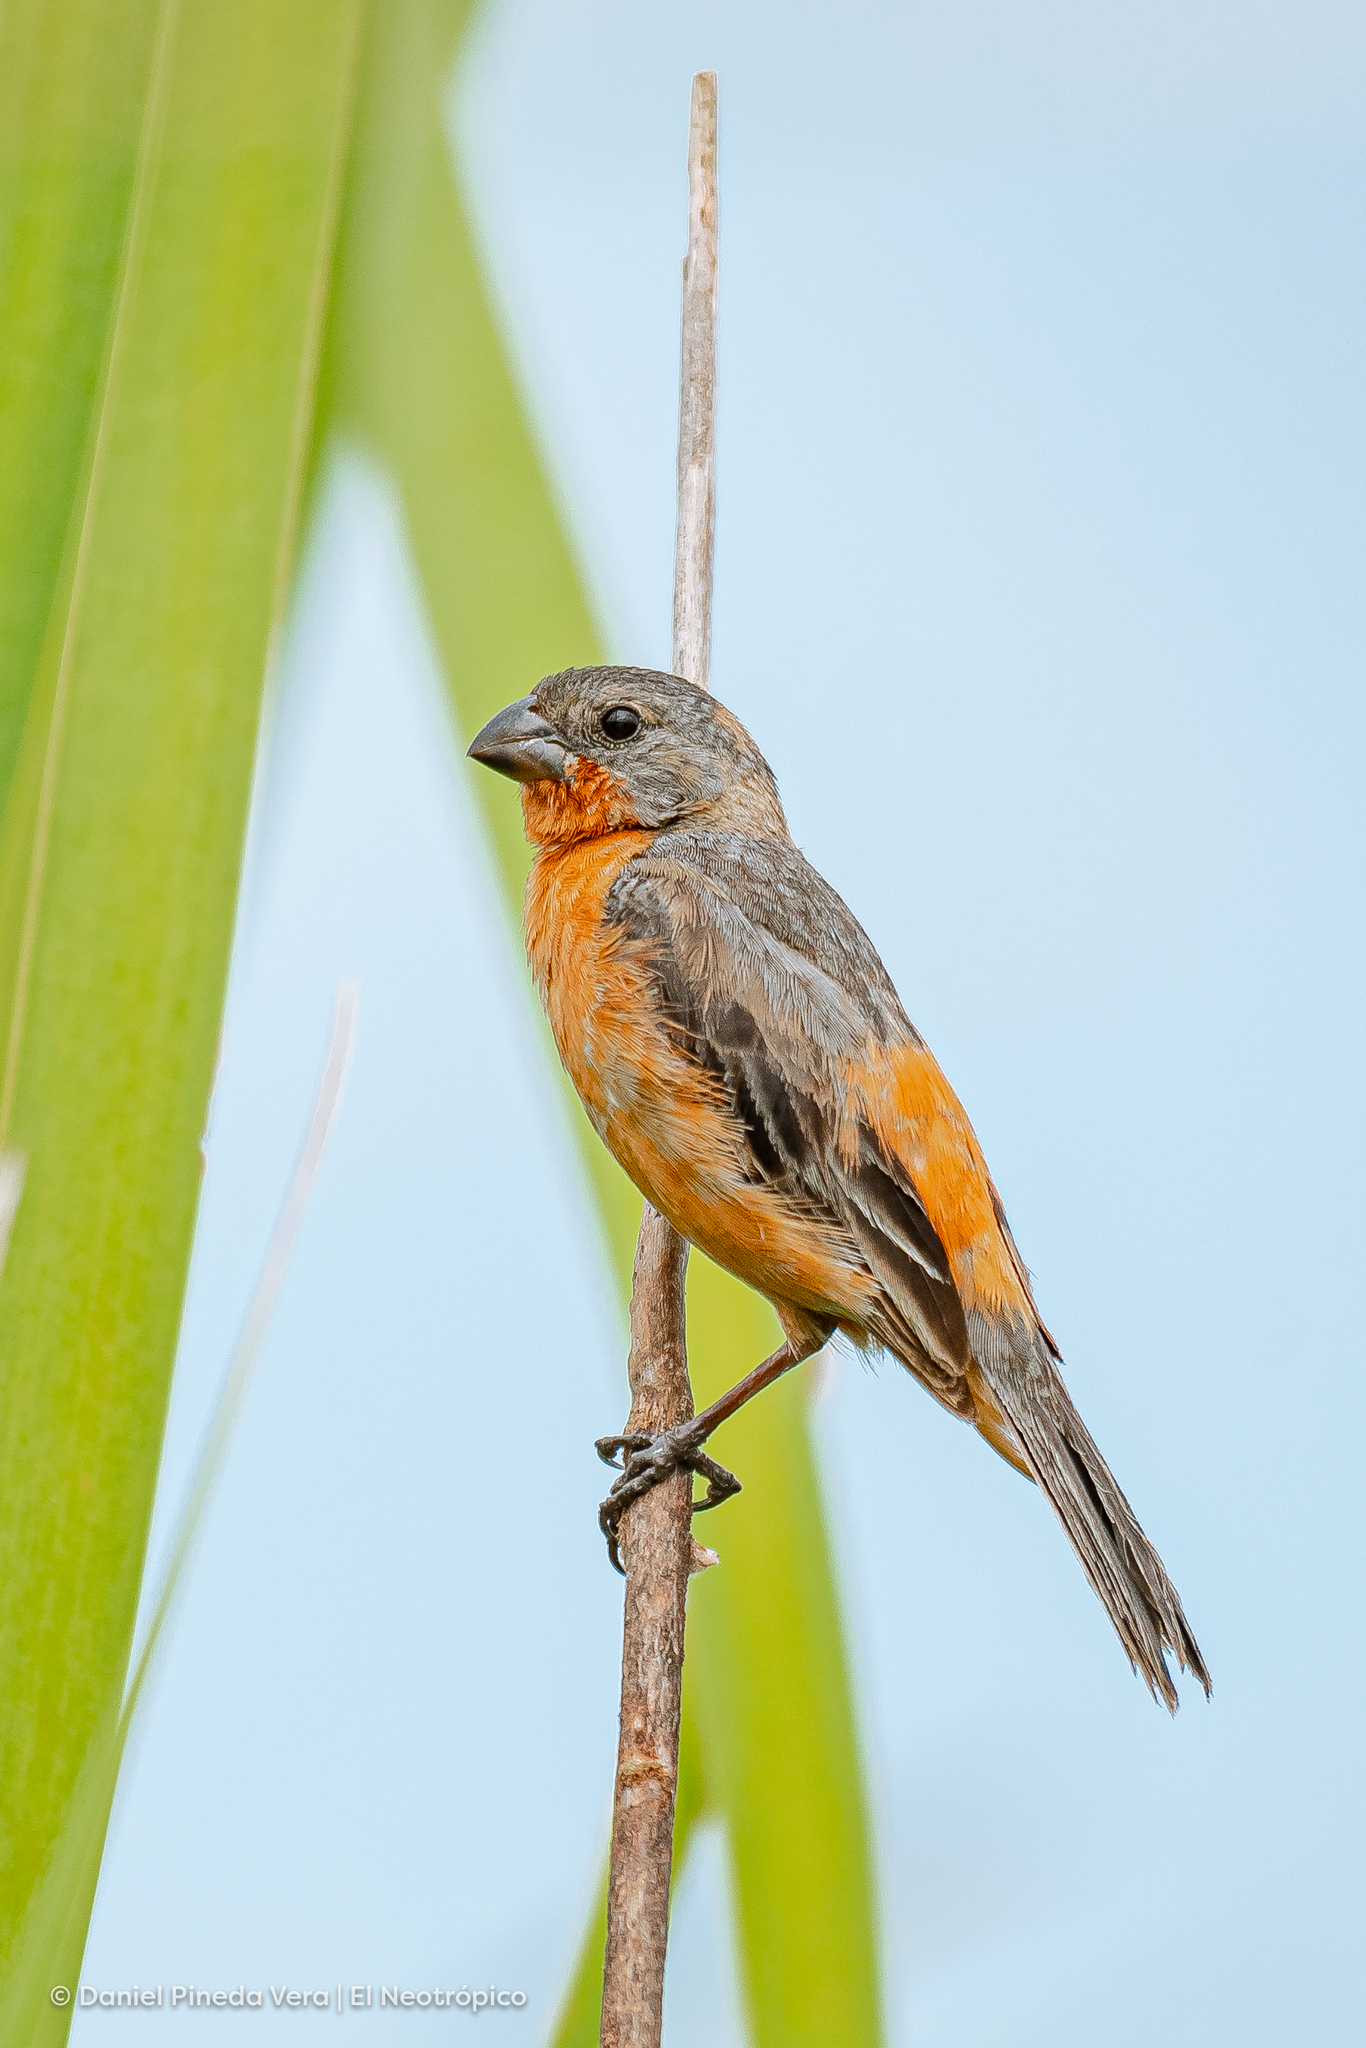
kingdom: Animalia
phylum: Chordata
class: Aves
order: Passeriformes
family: Thraupidae
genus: Sporophila
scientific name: Sporophila minuta
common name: Ruddy-breasted seedeater
